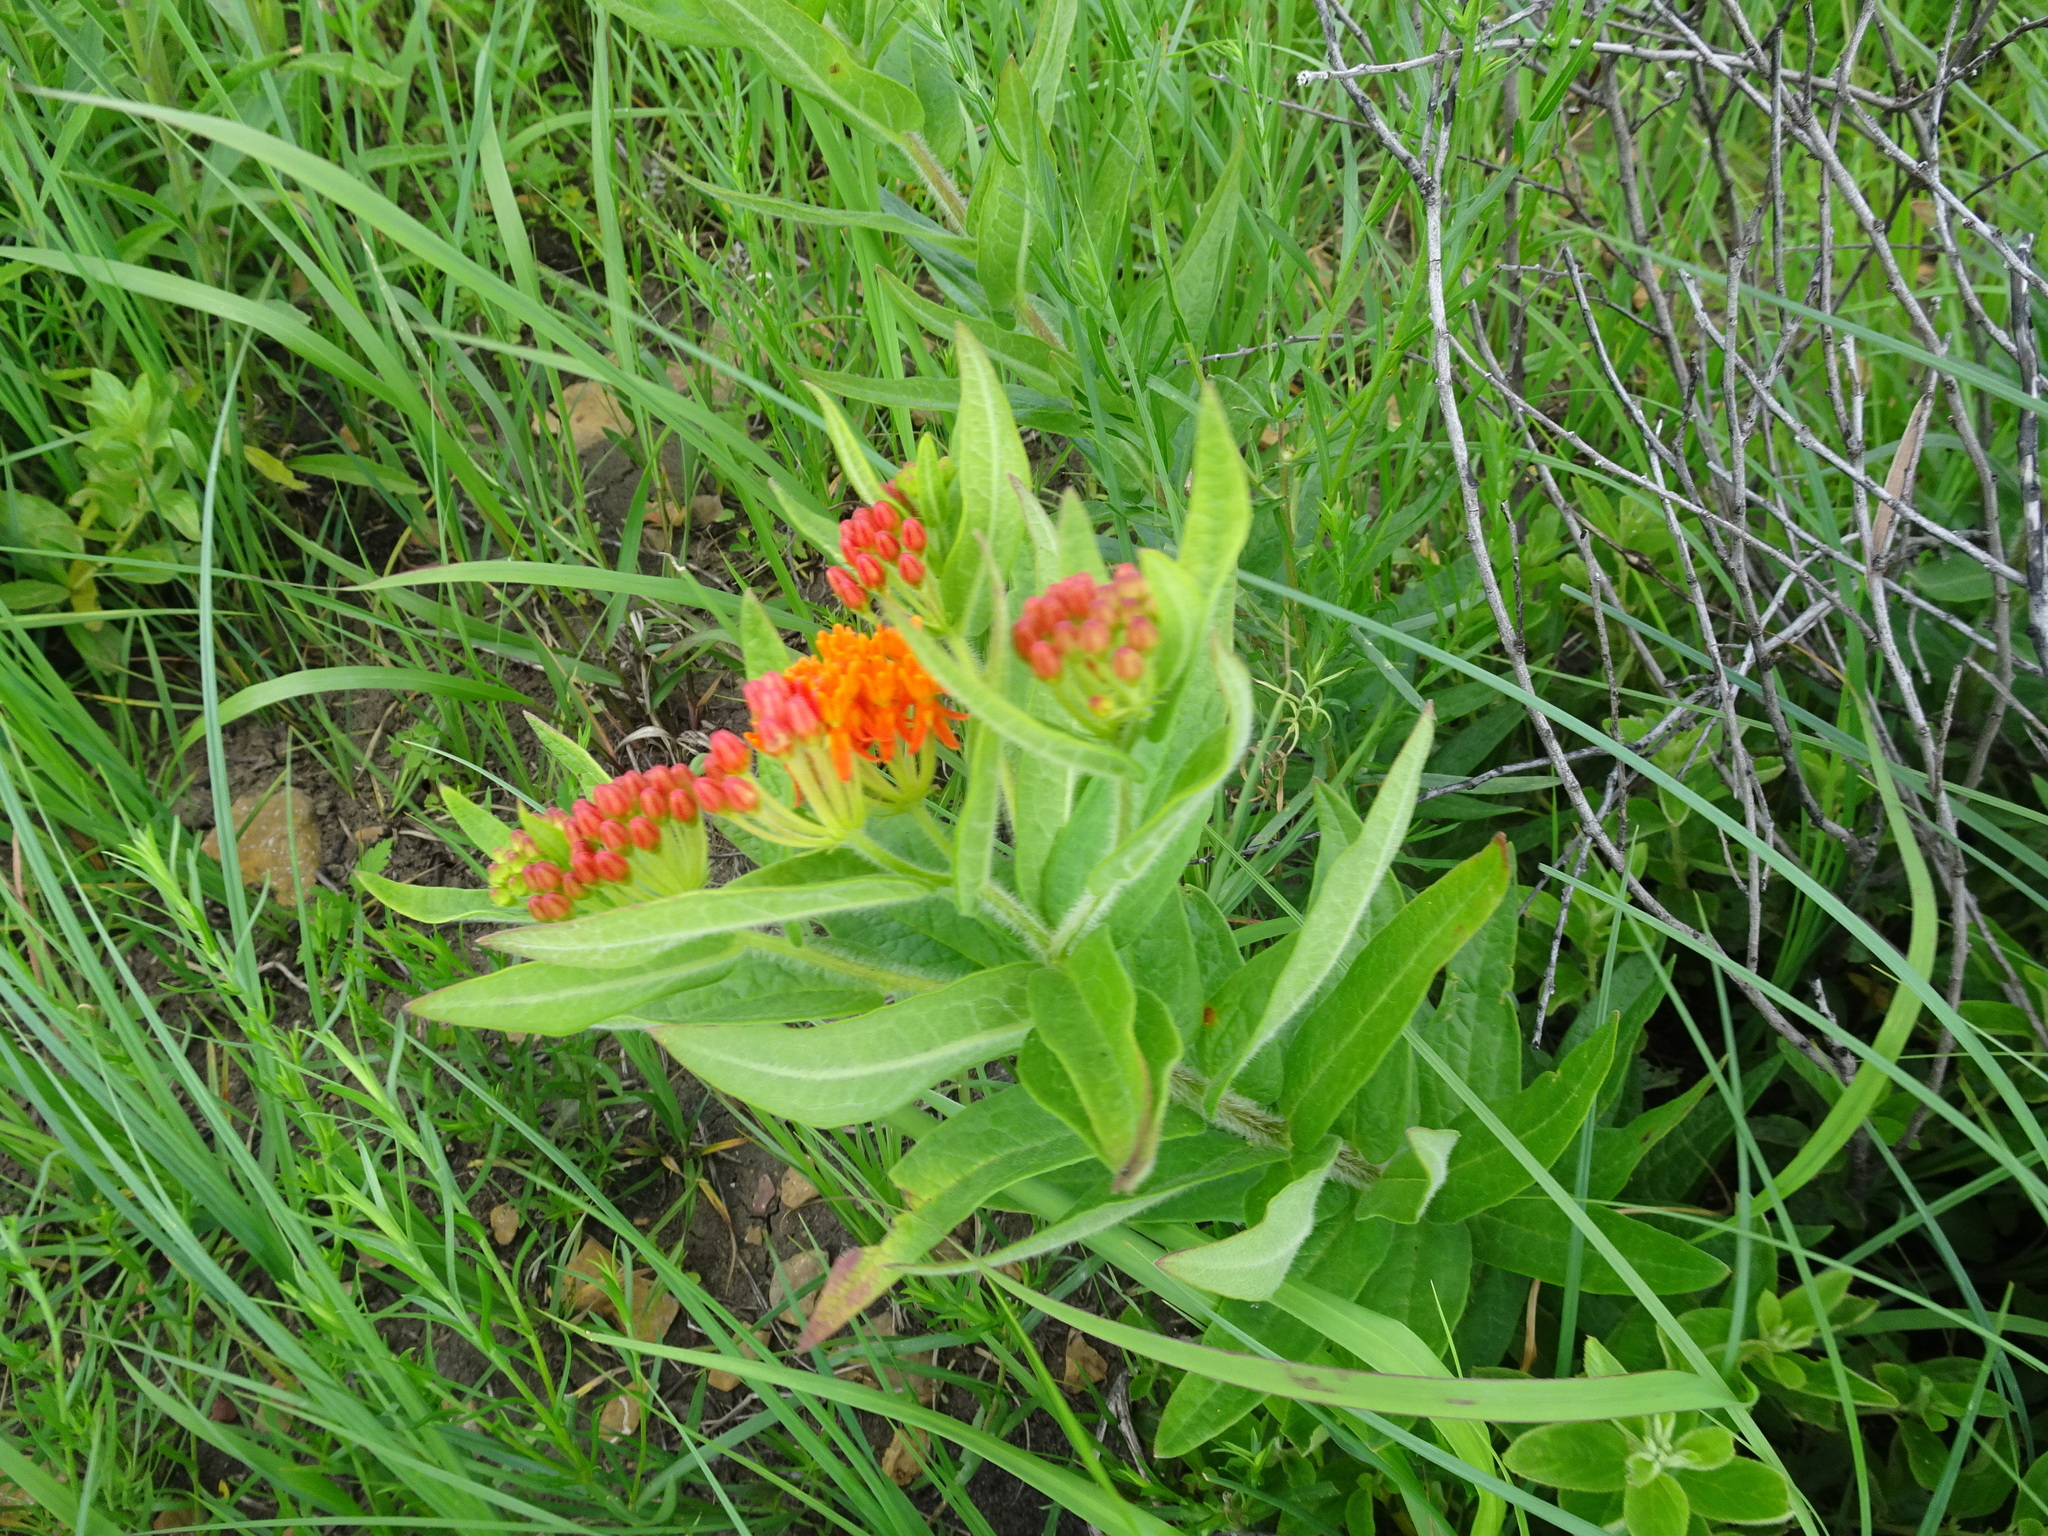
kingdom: Plantae
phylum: Tracheophyta
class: Magnoliopsida
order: Gentianales
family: Apocynaceae
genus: Asclepias
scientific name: Asclepias tuberosa
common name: Butterfly milkweed
